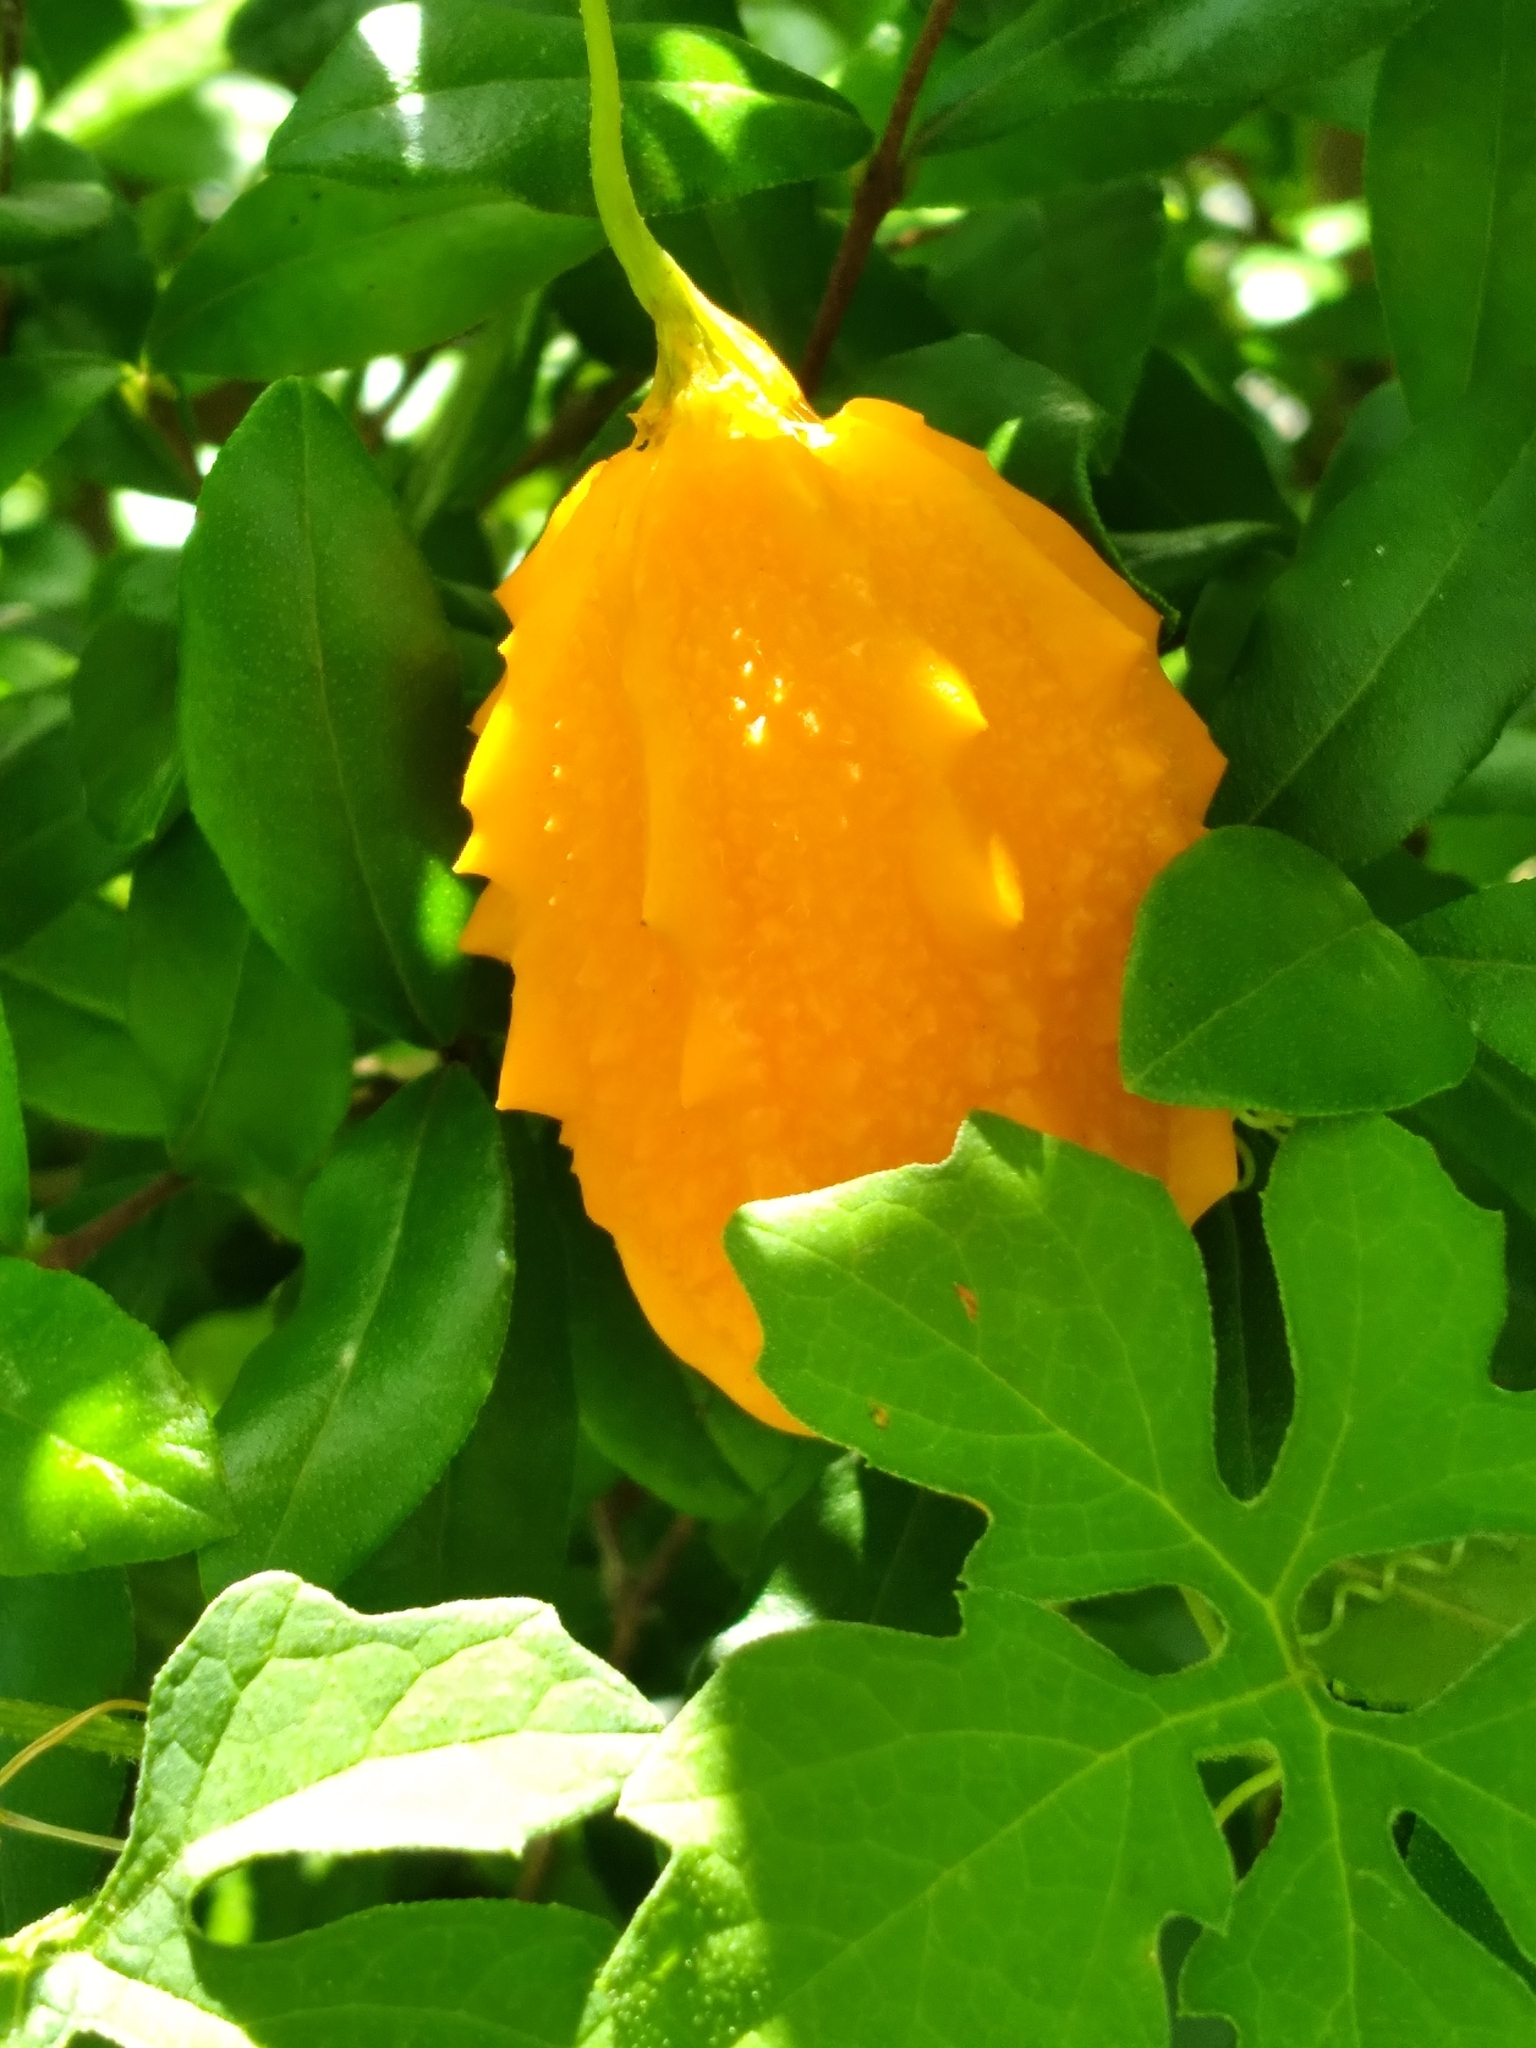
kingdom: Plantae
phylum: Tracheophyta
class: Magnoliopsida
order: Cucurbitales
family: Cucurbitaceae
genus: Momordica
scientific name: Momordica charantia
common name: Balsampear
